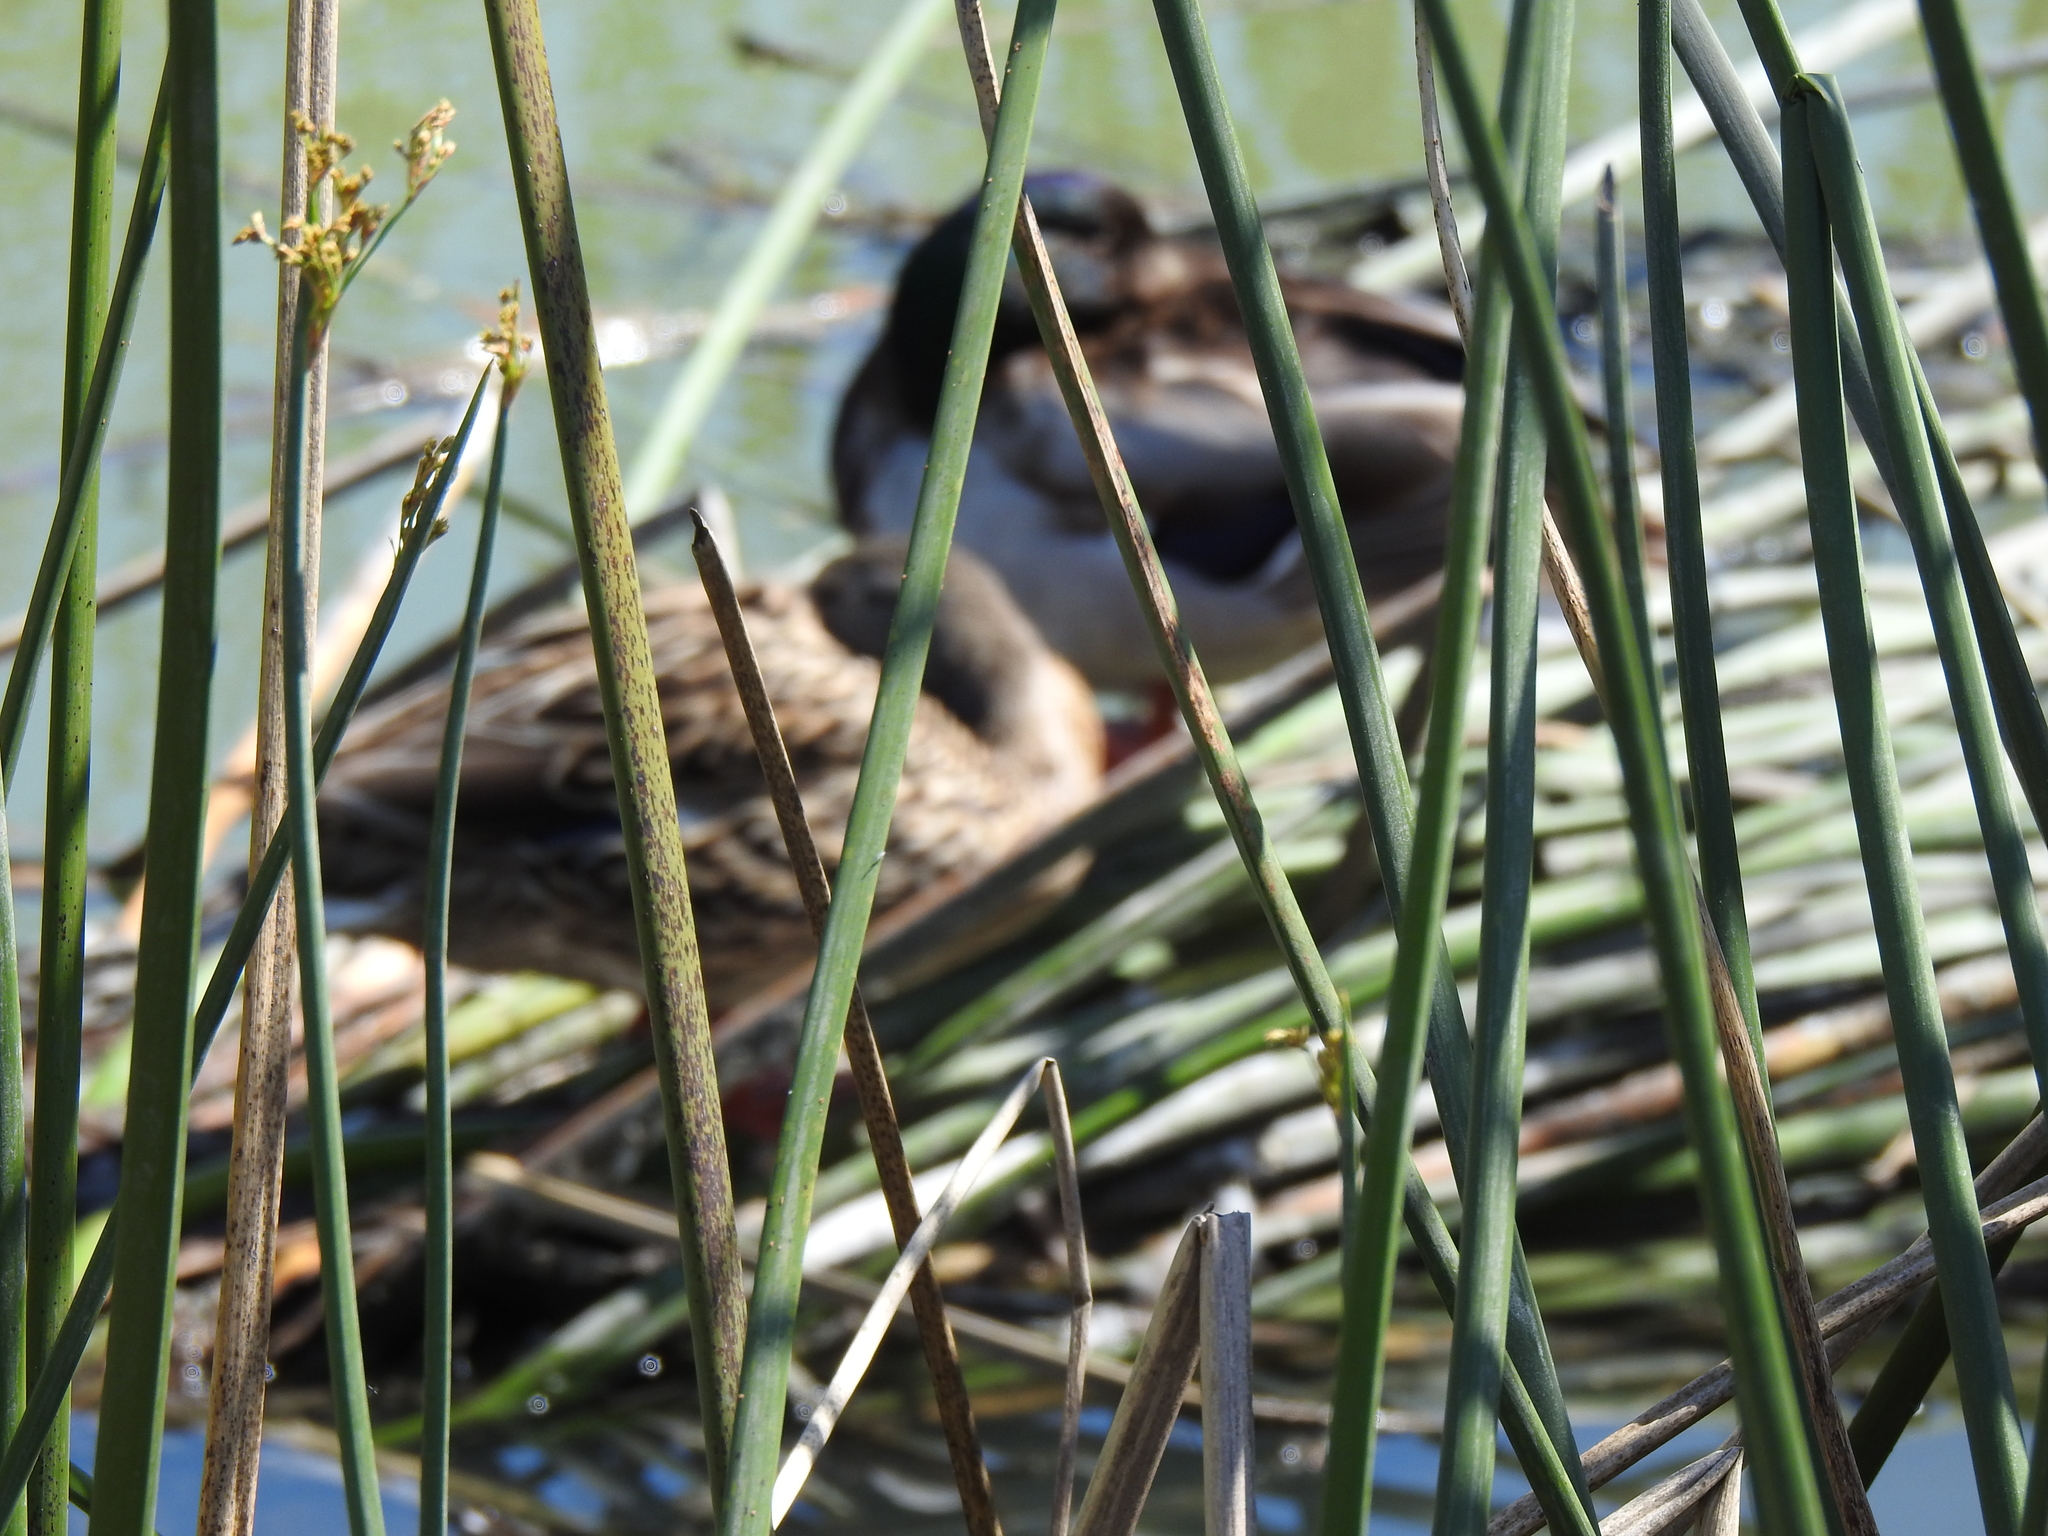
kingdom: Animalia
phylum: Chordata
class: Aves
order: Anseriformes
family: Anatidae
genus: Anas
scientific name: Anas platyrhynchos
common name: Mallard
